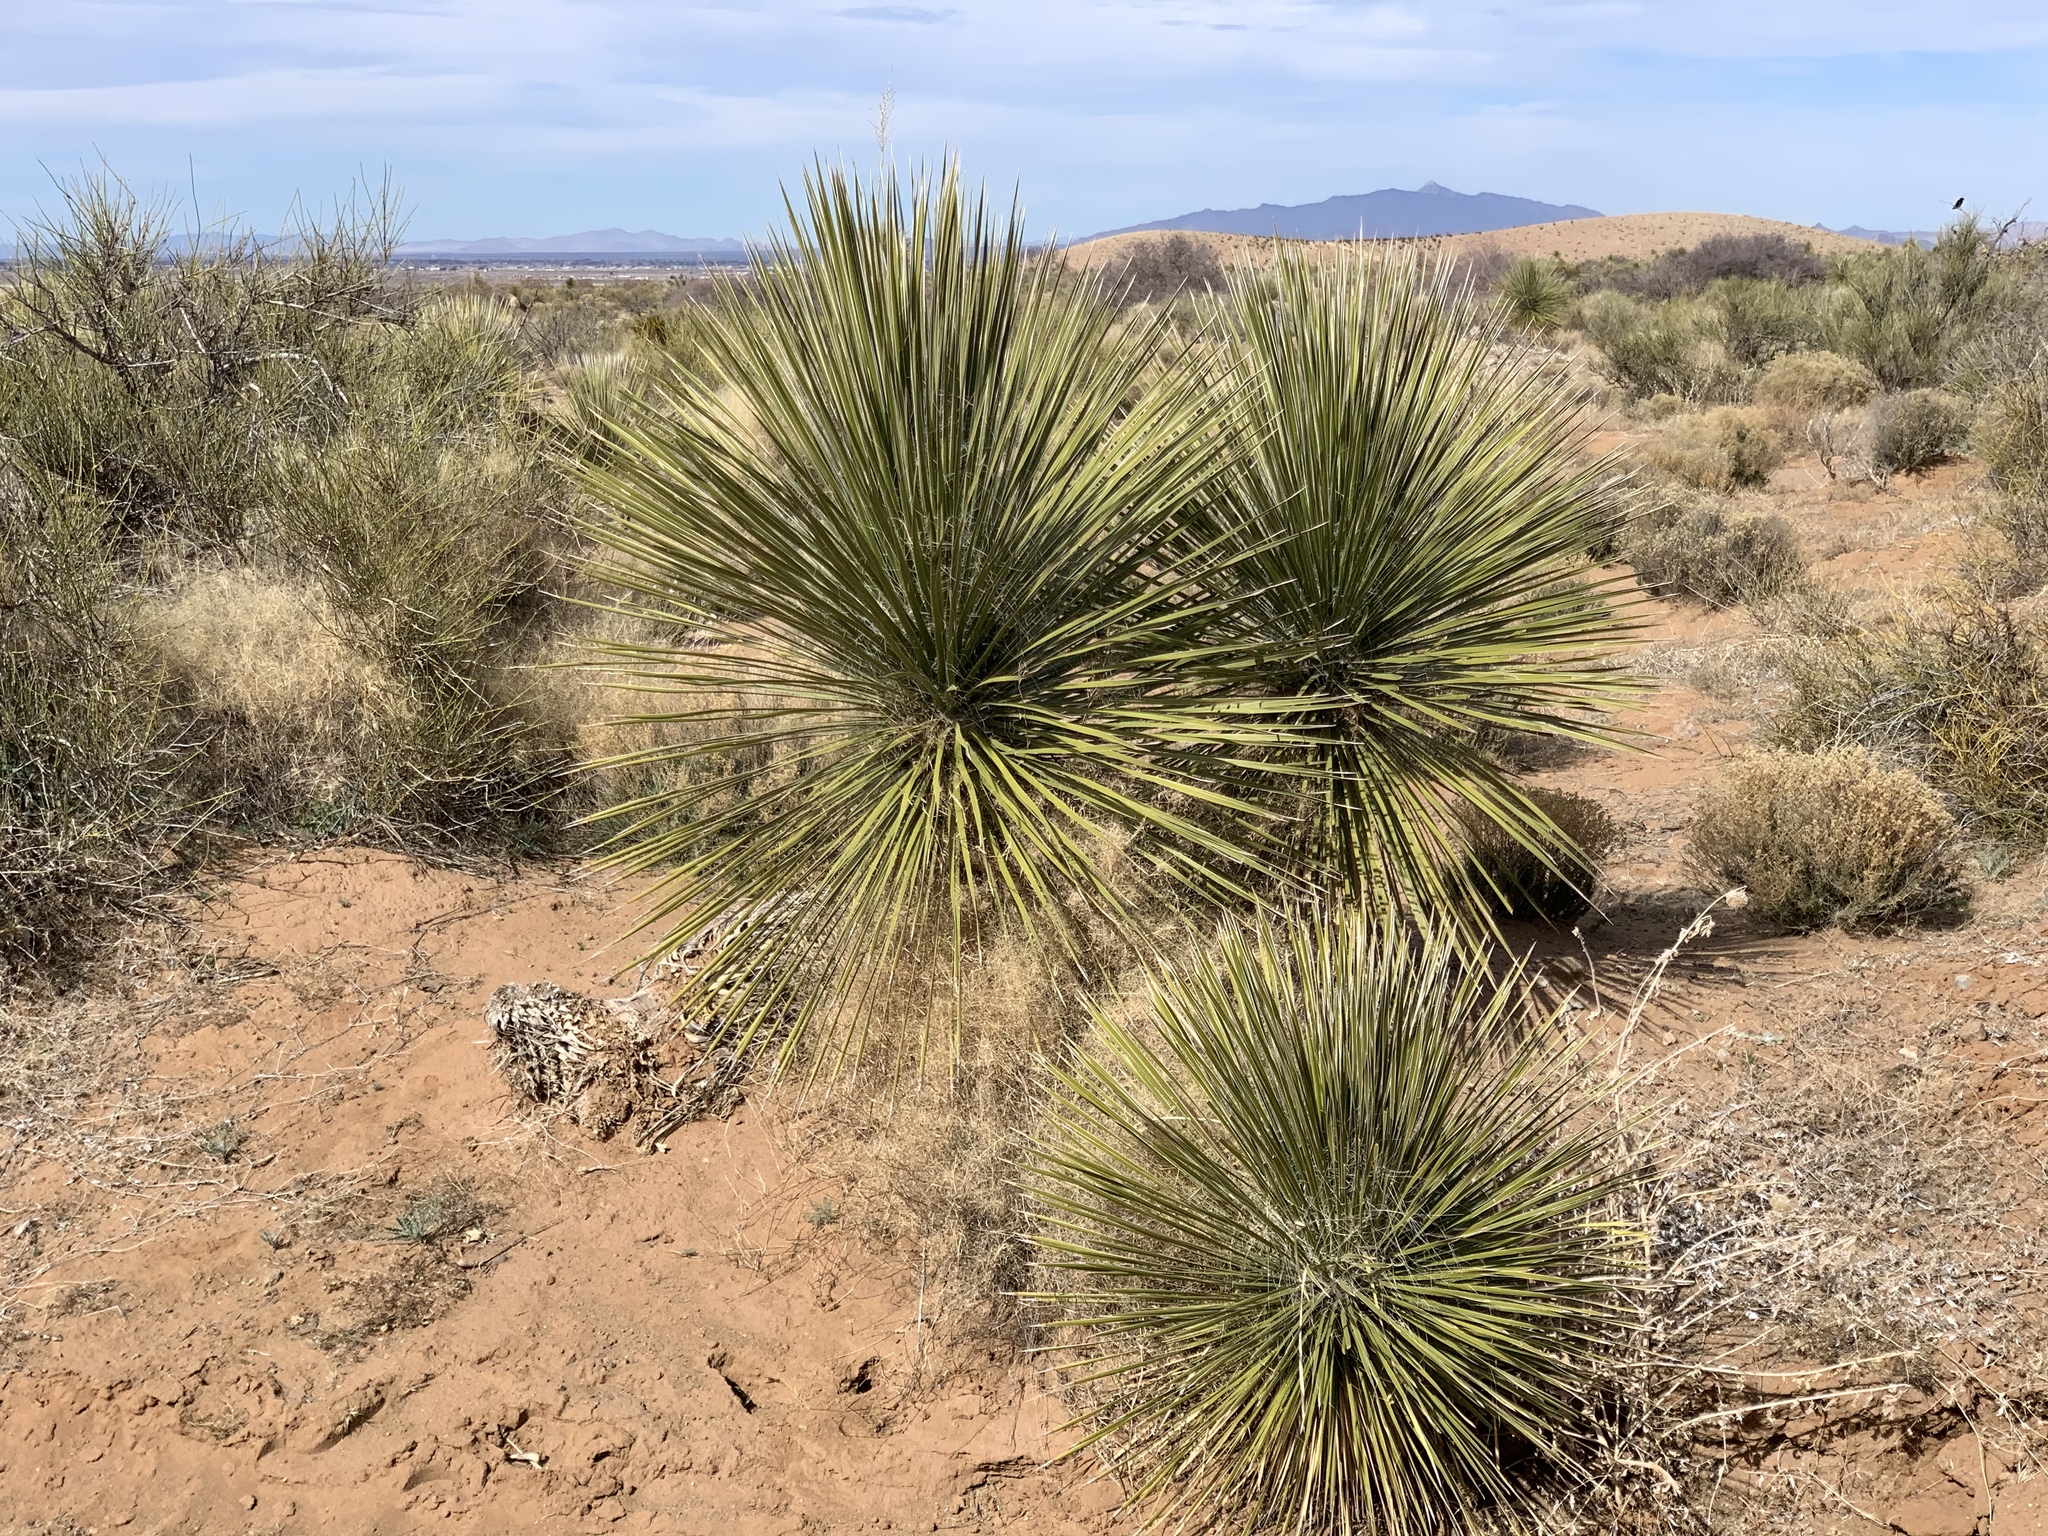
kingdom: Plantae
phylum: Tracheophyta
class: Liliopsida
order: Asparagales
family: Asparagaceae
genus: Yucca
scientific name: Yucca elata
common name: Palmella
